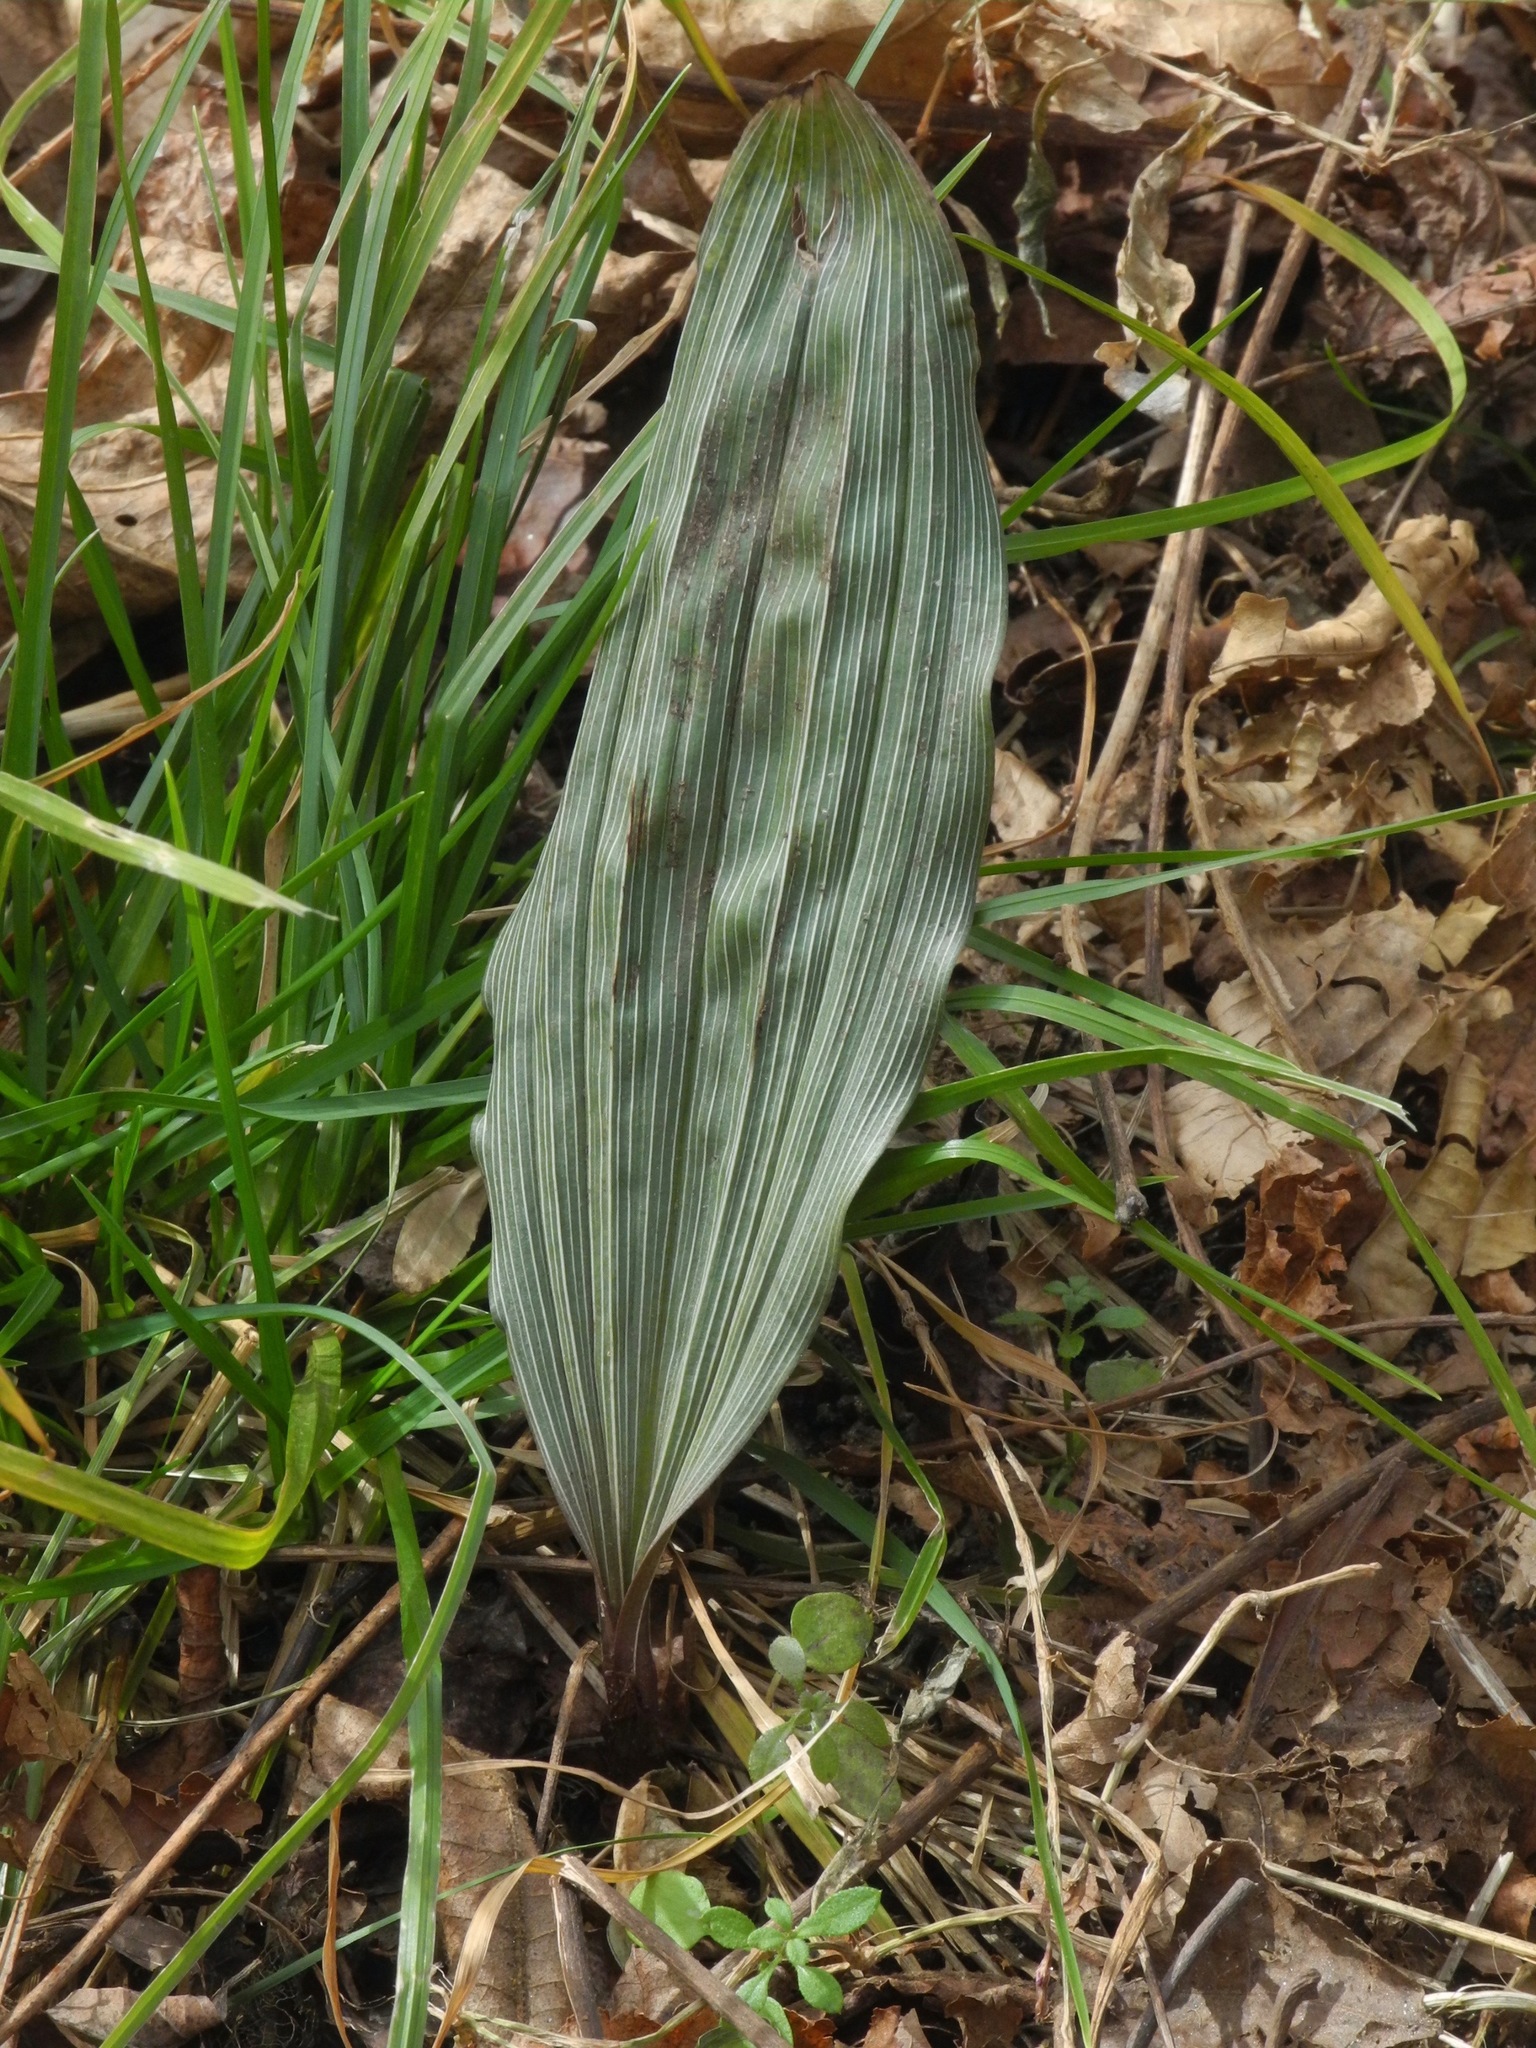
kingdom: Plantae
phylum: Tracheophyta
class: Liliopsida
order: Asparagales
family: Orchidaceae
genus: Aplectrum
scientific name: Aplectrum hyemale
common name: Adam-and-eve
